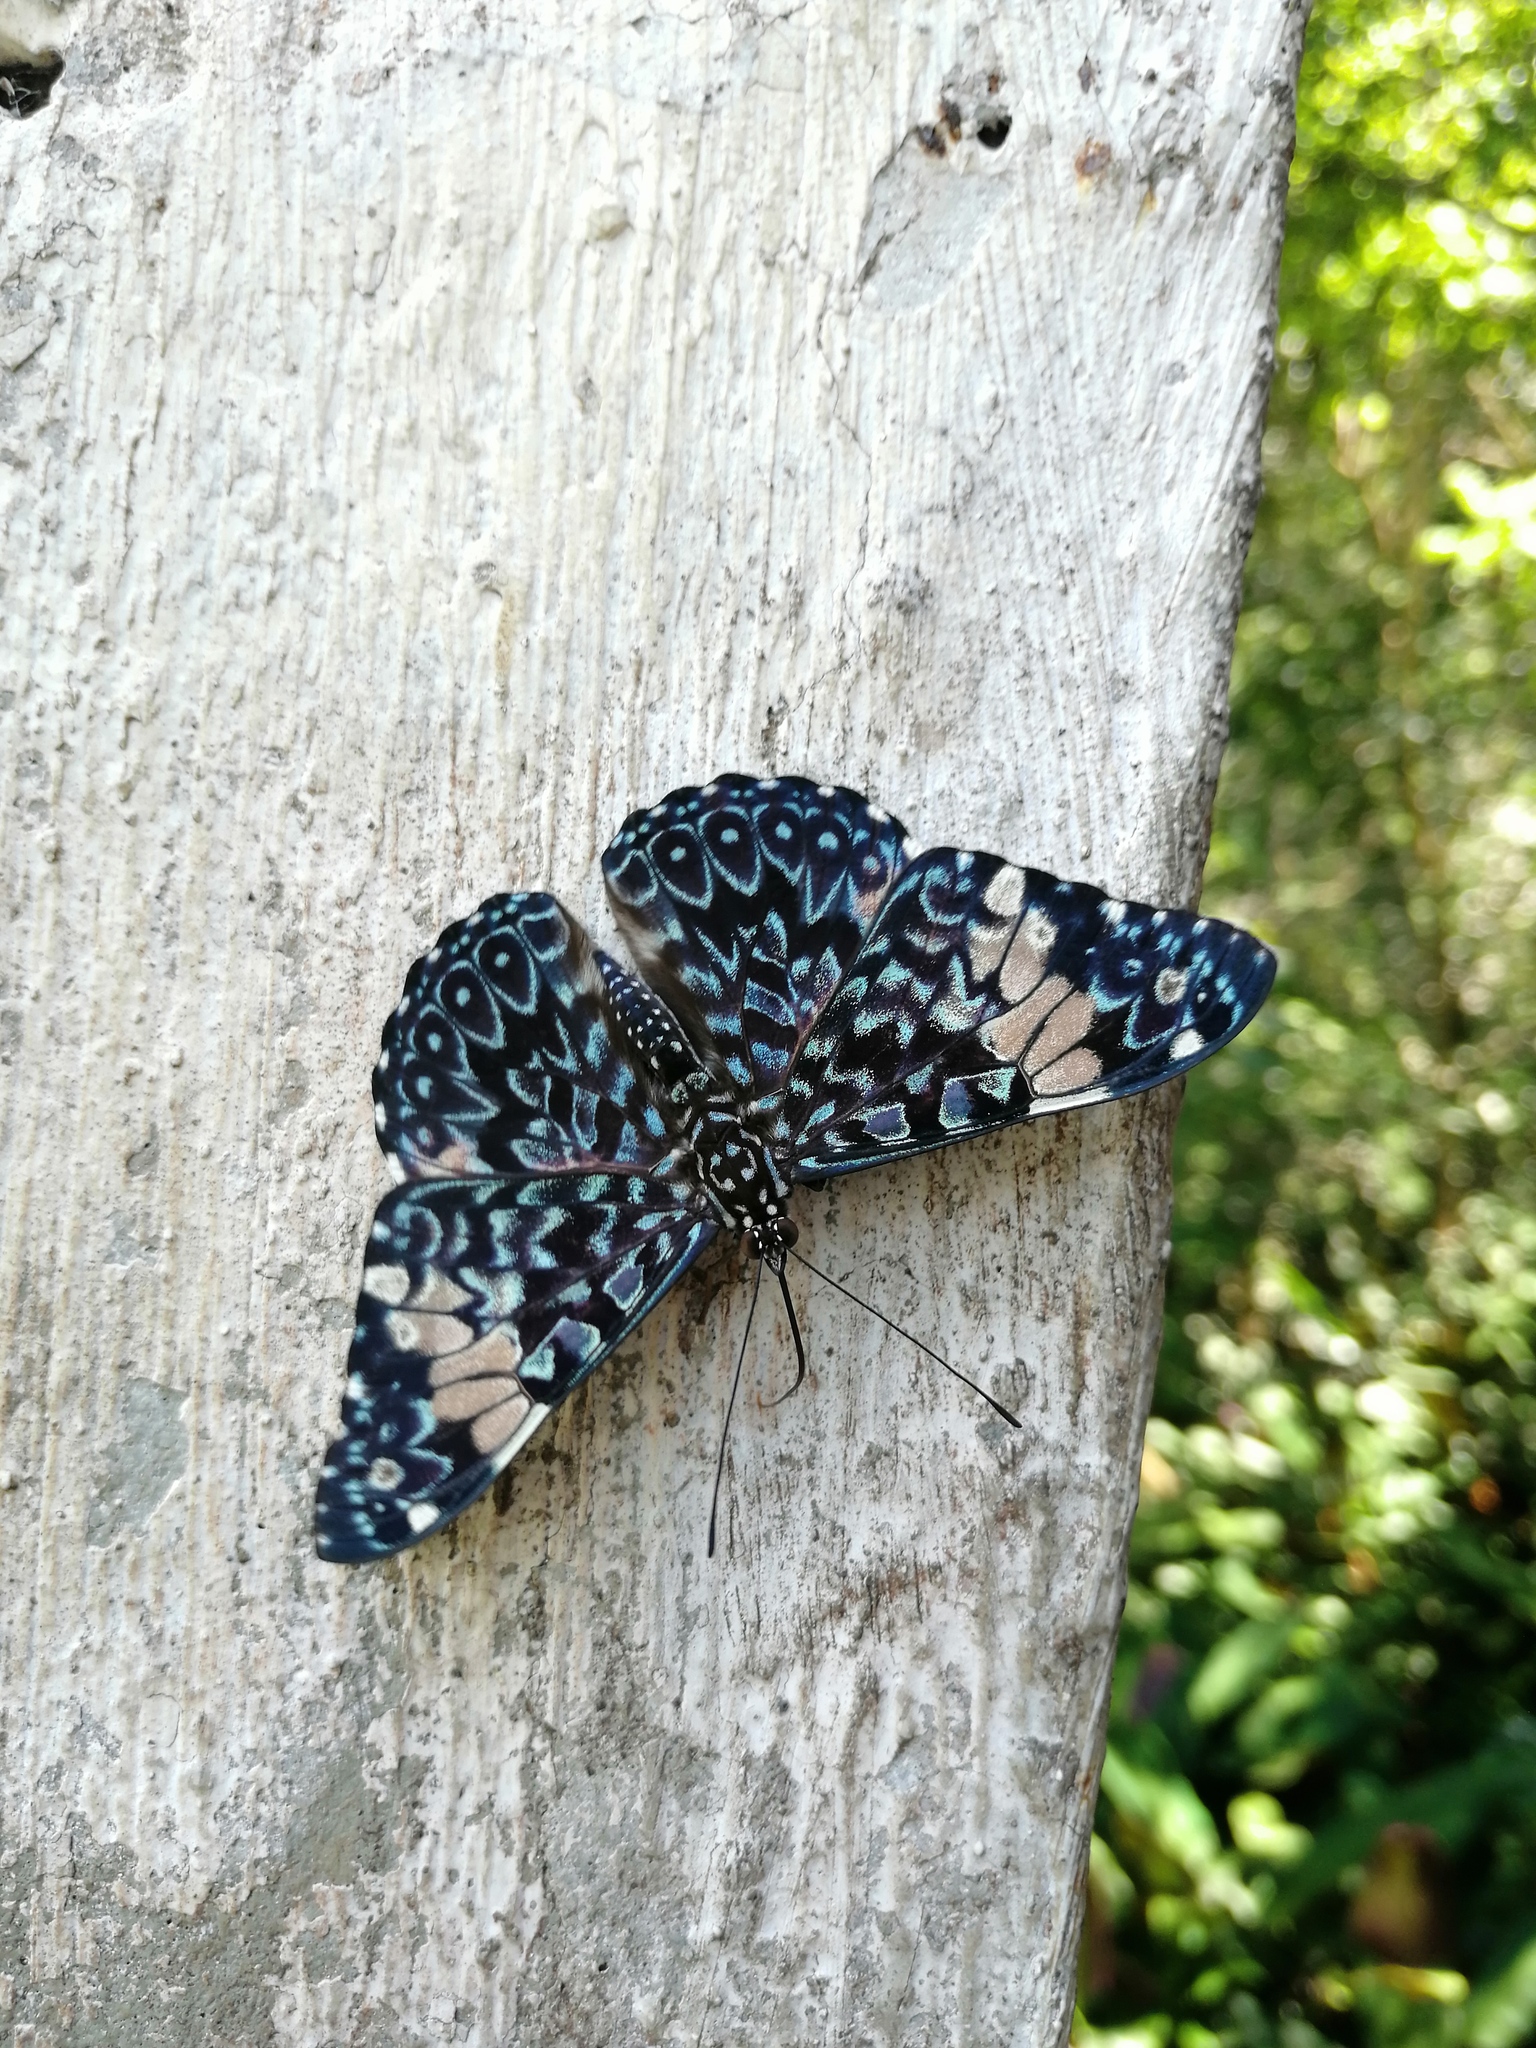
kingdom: Animalia
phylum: Arthropoda
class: Insecta
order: Lepidoptera
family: Nymphalidae
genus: Hamadryas
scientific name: Hamadryas amphinome
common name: Red cracker
